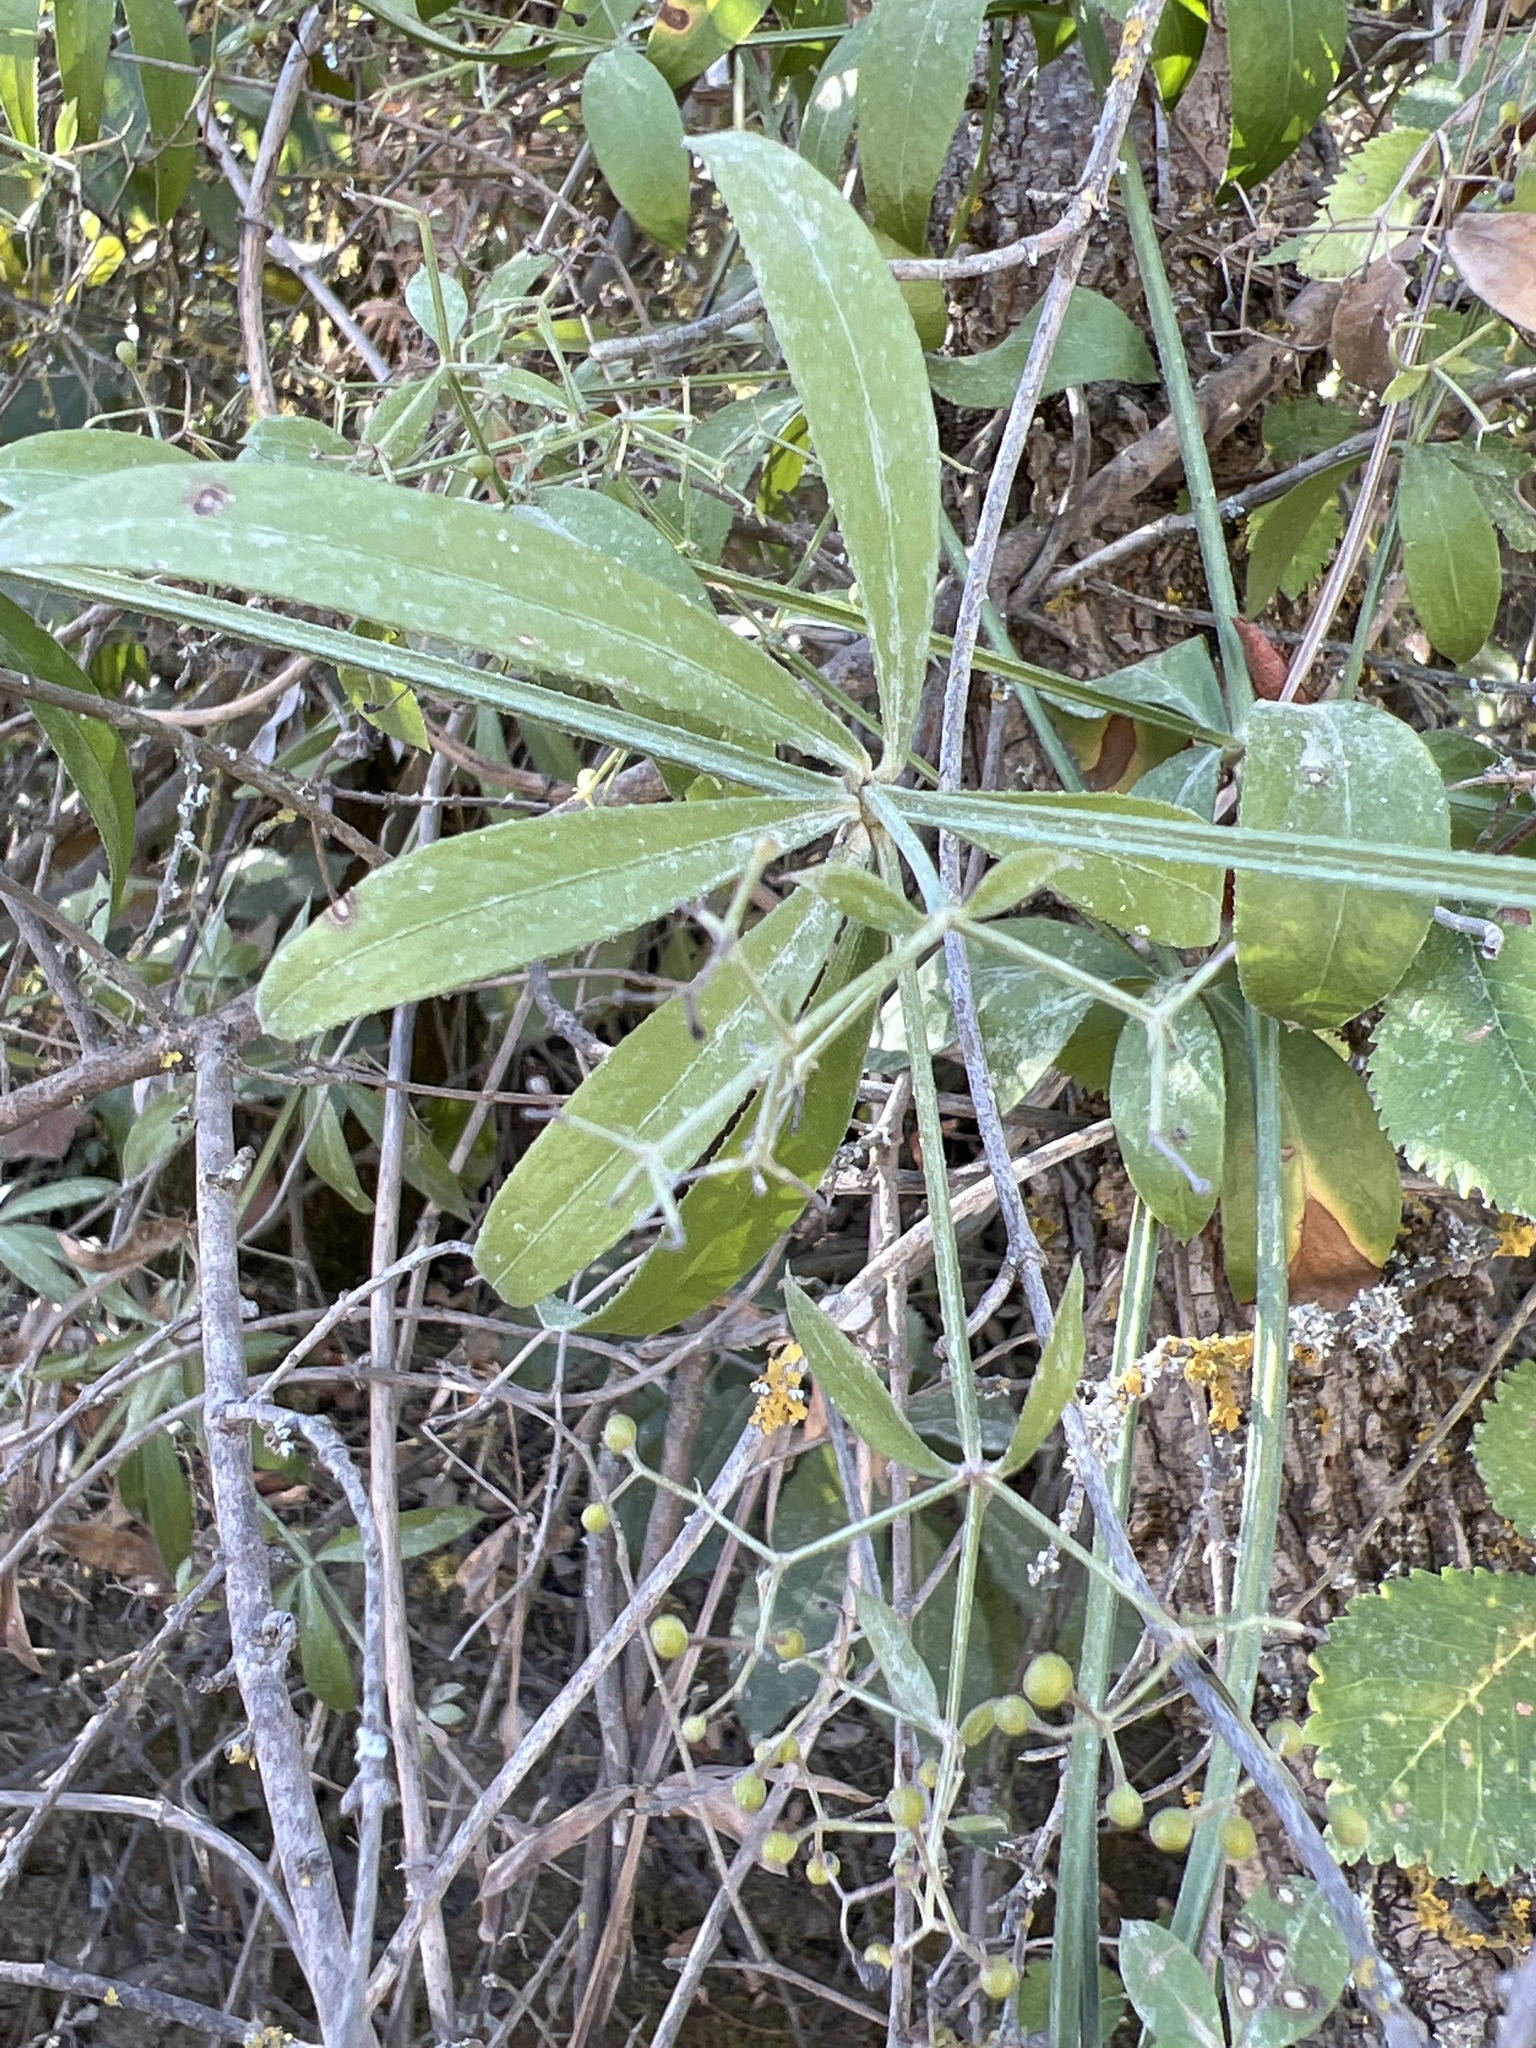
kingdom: Plantae
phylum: Tracheophyta
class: Magnoliopsida
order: Gentianales
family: Rubiaceae
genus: Rubia
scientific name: Rubia peregrina
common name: Wild madder
